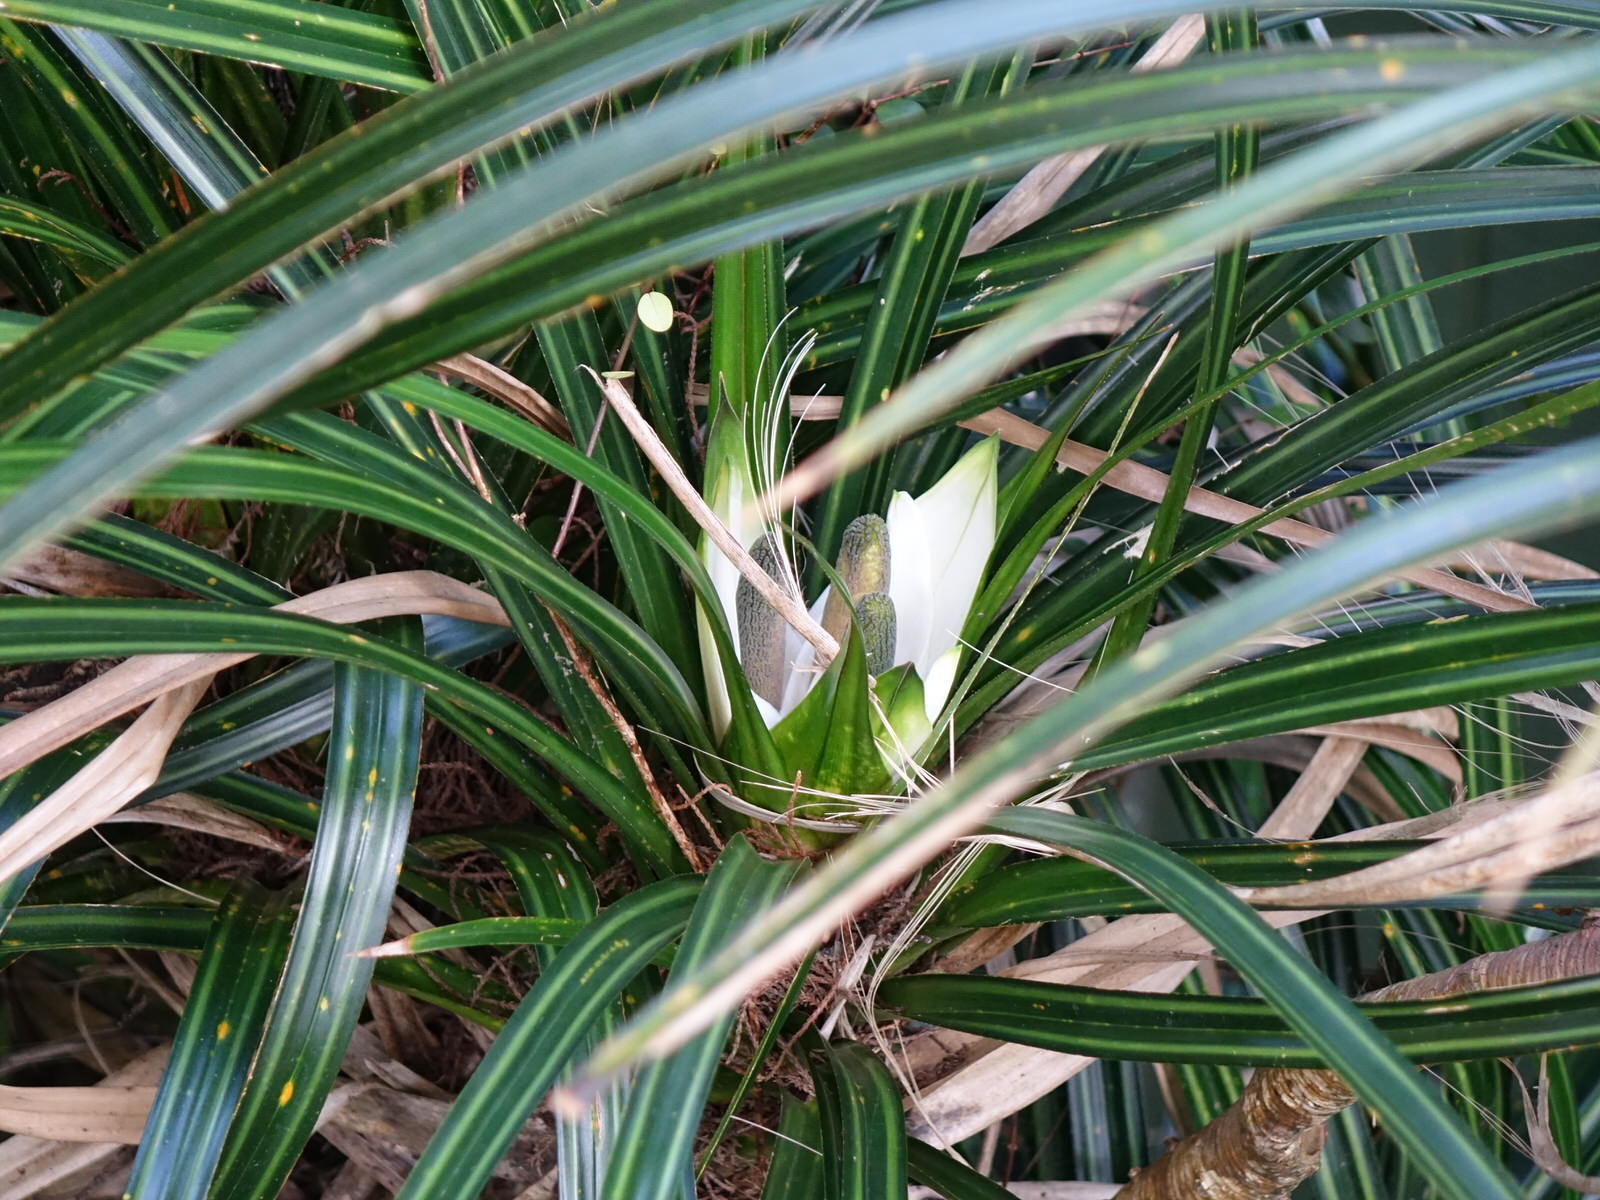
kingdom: Plantae
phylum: Tracheophyta
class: Liliopsida
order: Pandanales
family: Pandanaceae
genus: Freycinetia
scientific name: Freycinetia banksii
